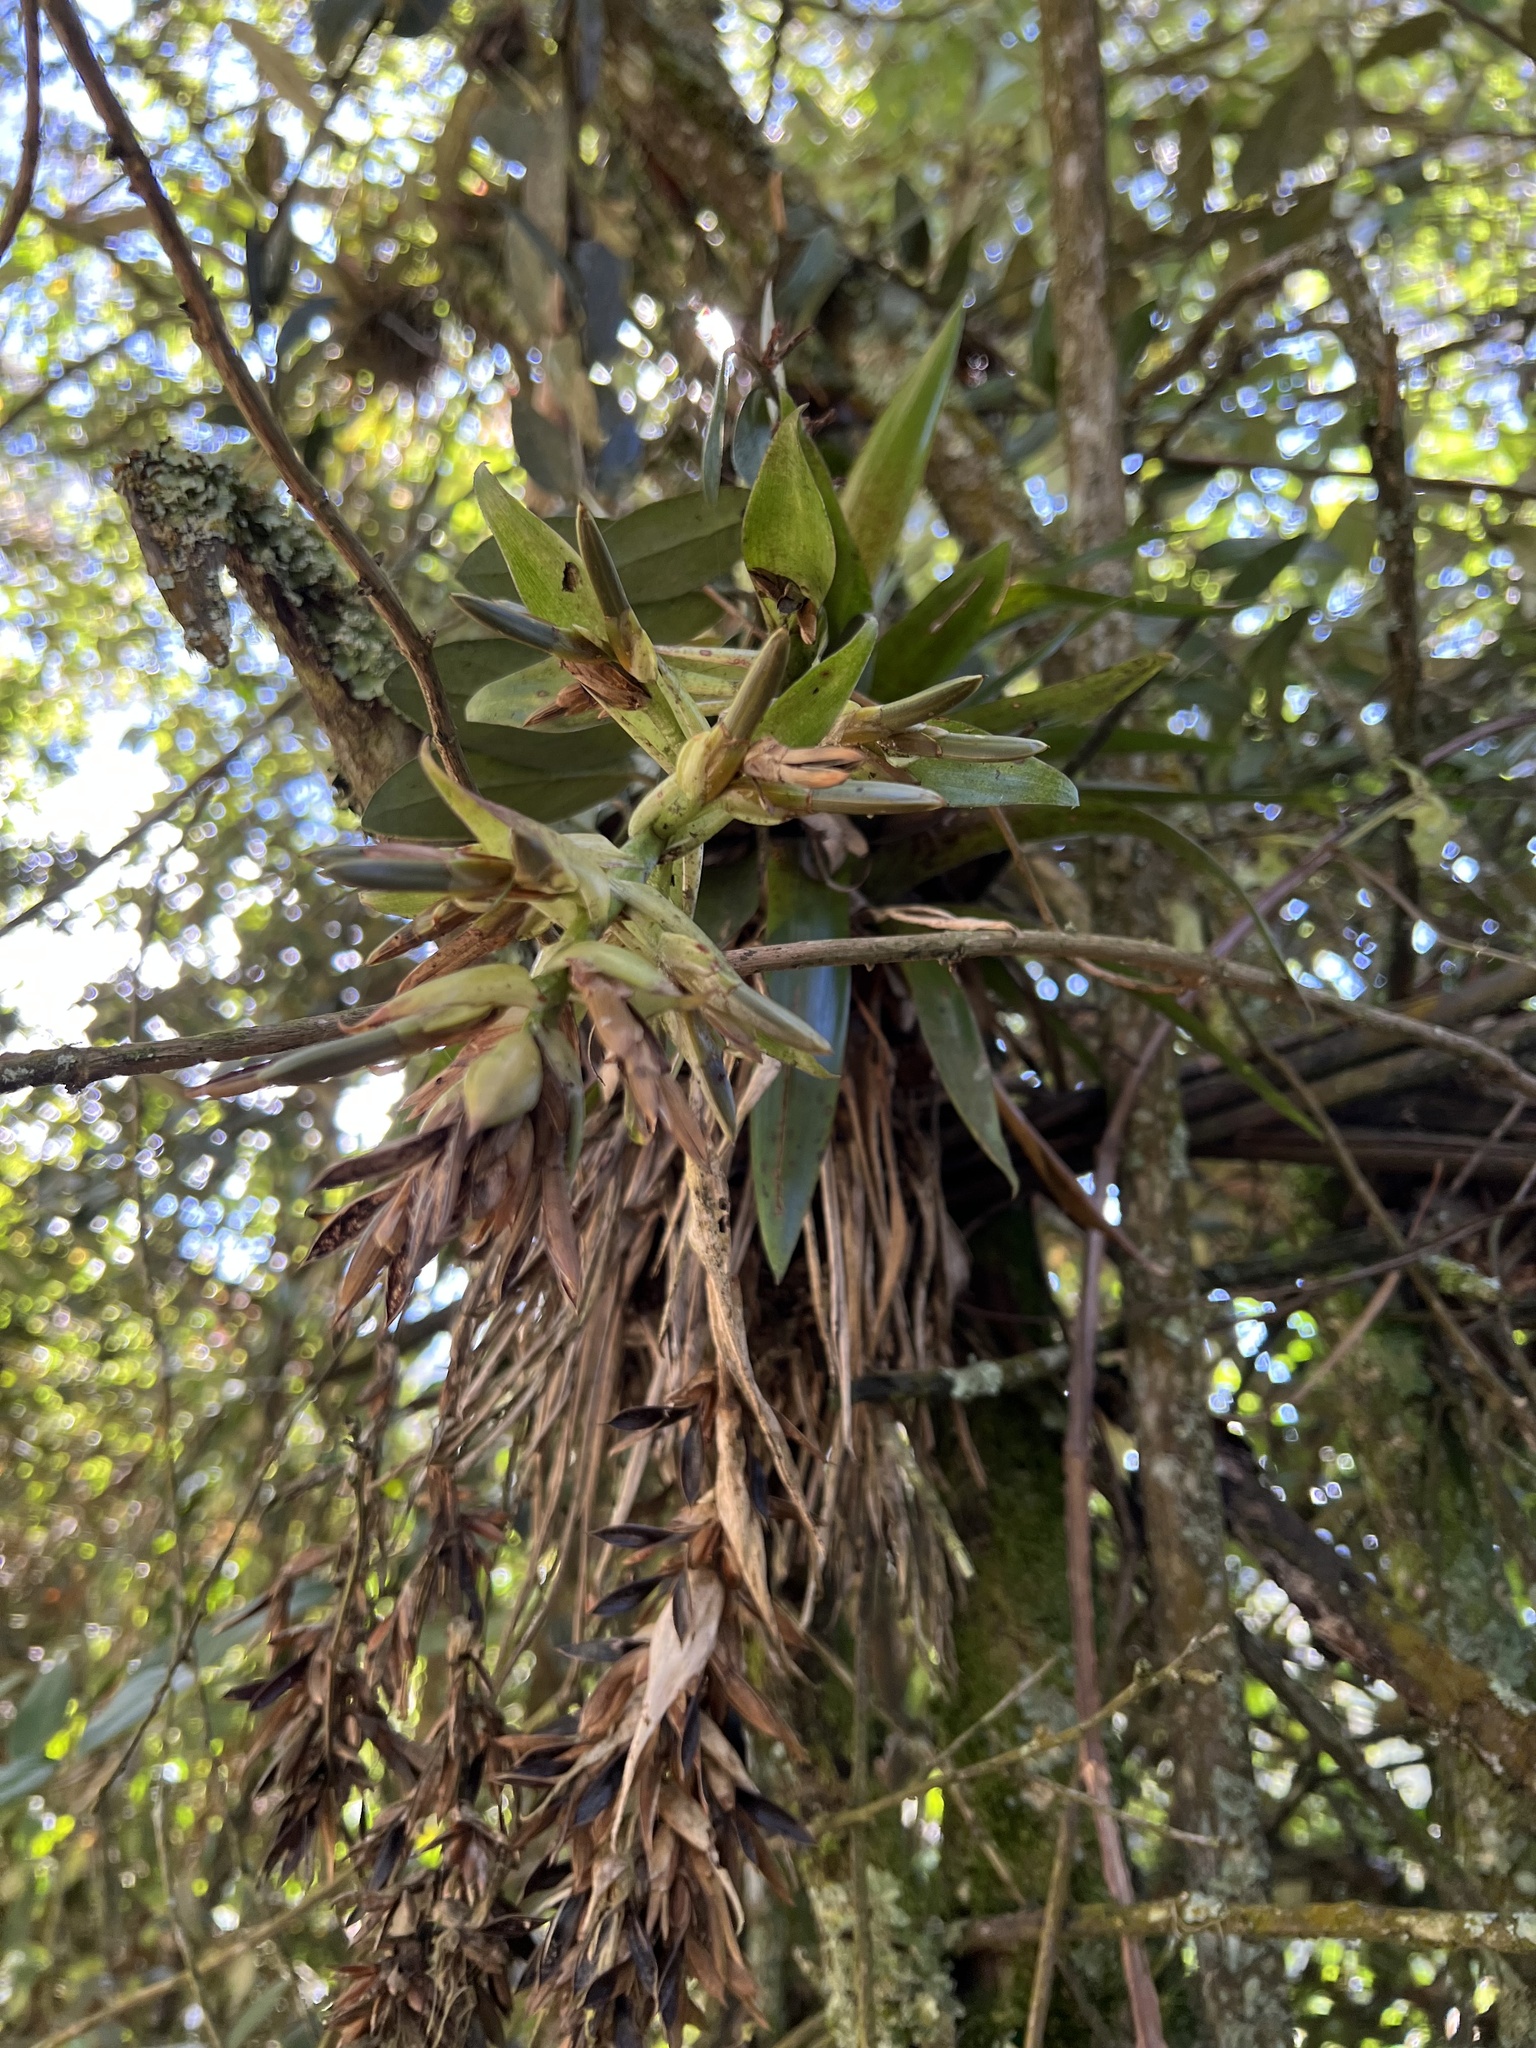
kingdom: Plantae
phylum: Tracheophyta
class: Liliopsida
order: Poales
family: Bromeliaceae
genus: Tillandsia
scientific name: Tillandsia biflora
